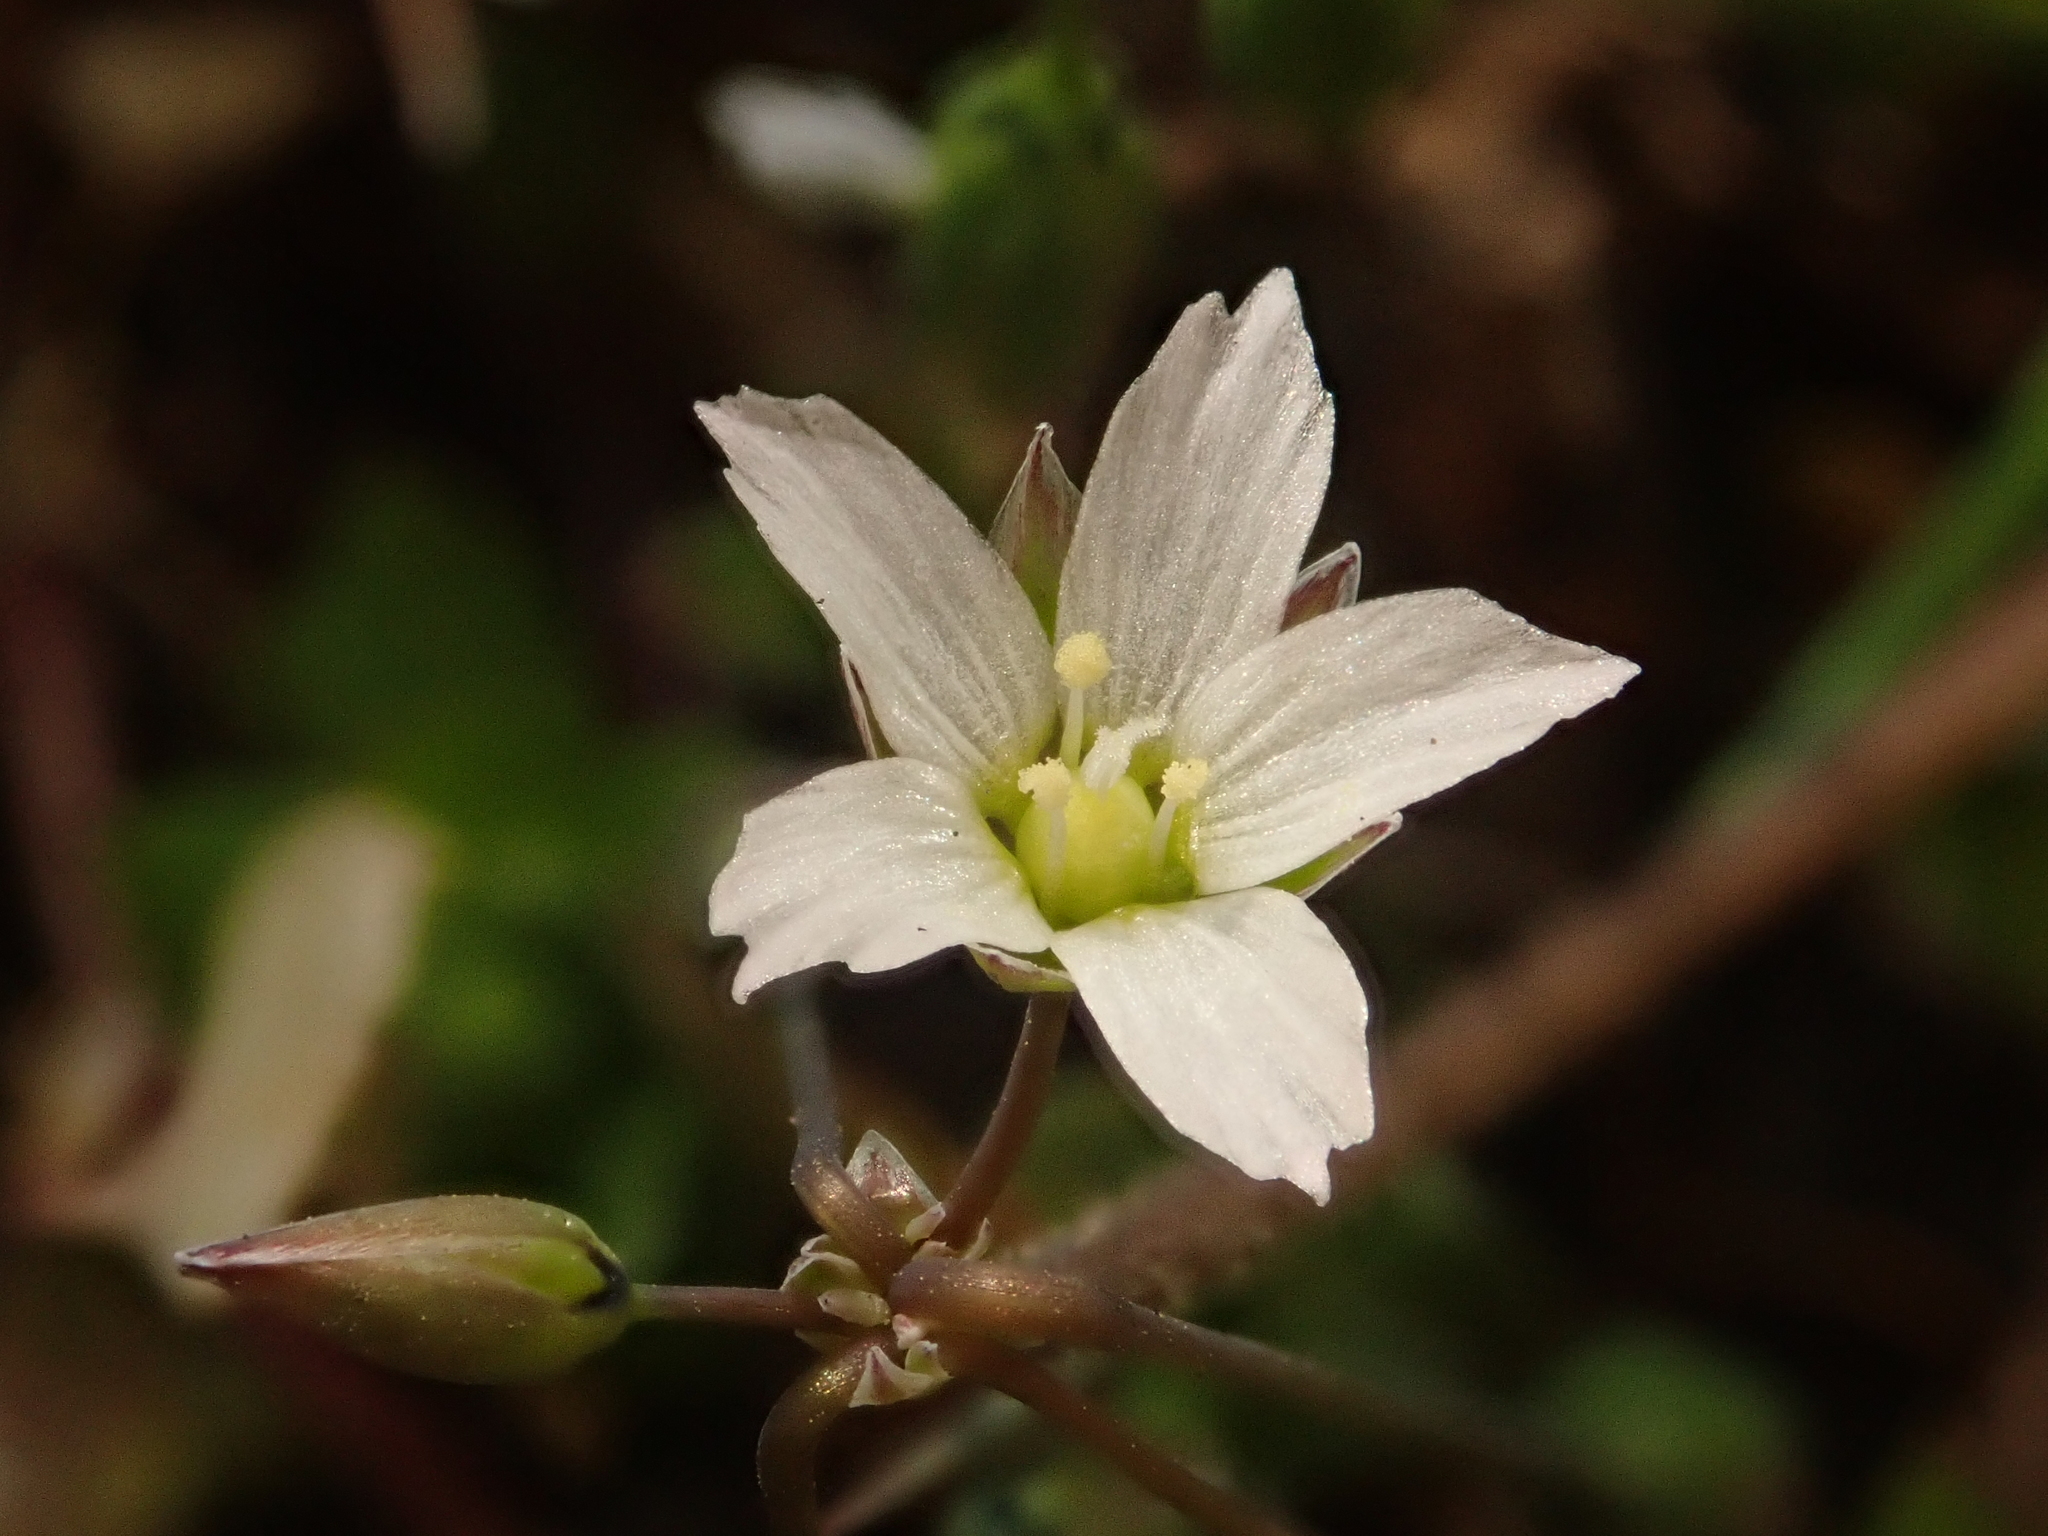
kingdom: Plantae
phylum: Tracheophyta
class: Magnoliopsida
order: Caryophyllales
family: Caryophyllaceae
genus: Holosteum
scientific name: Holosteum umbellatum
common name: Jagged chickweed
